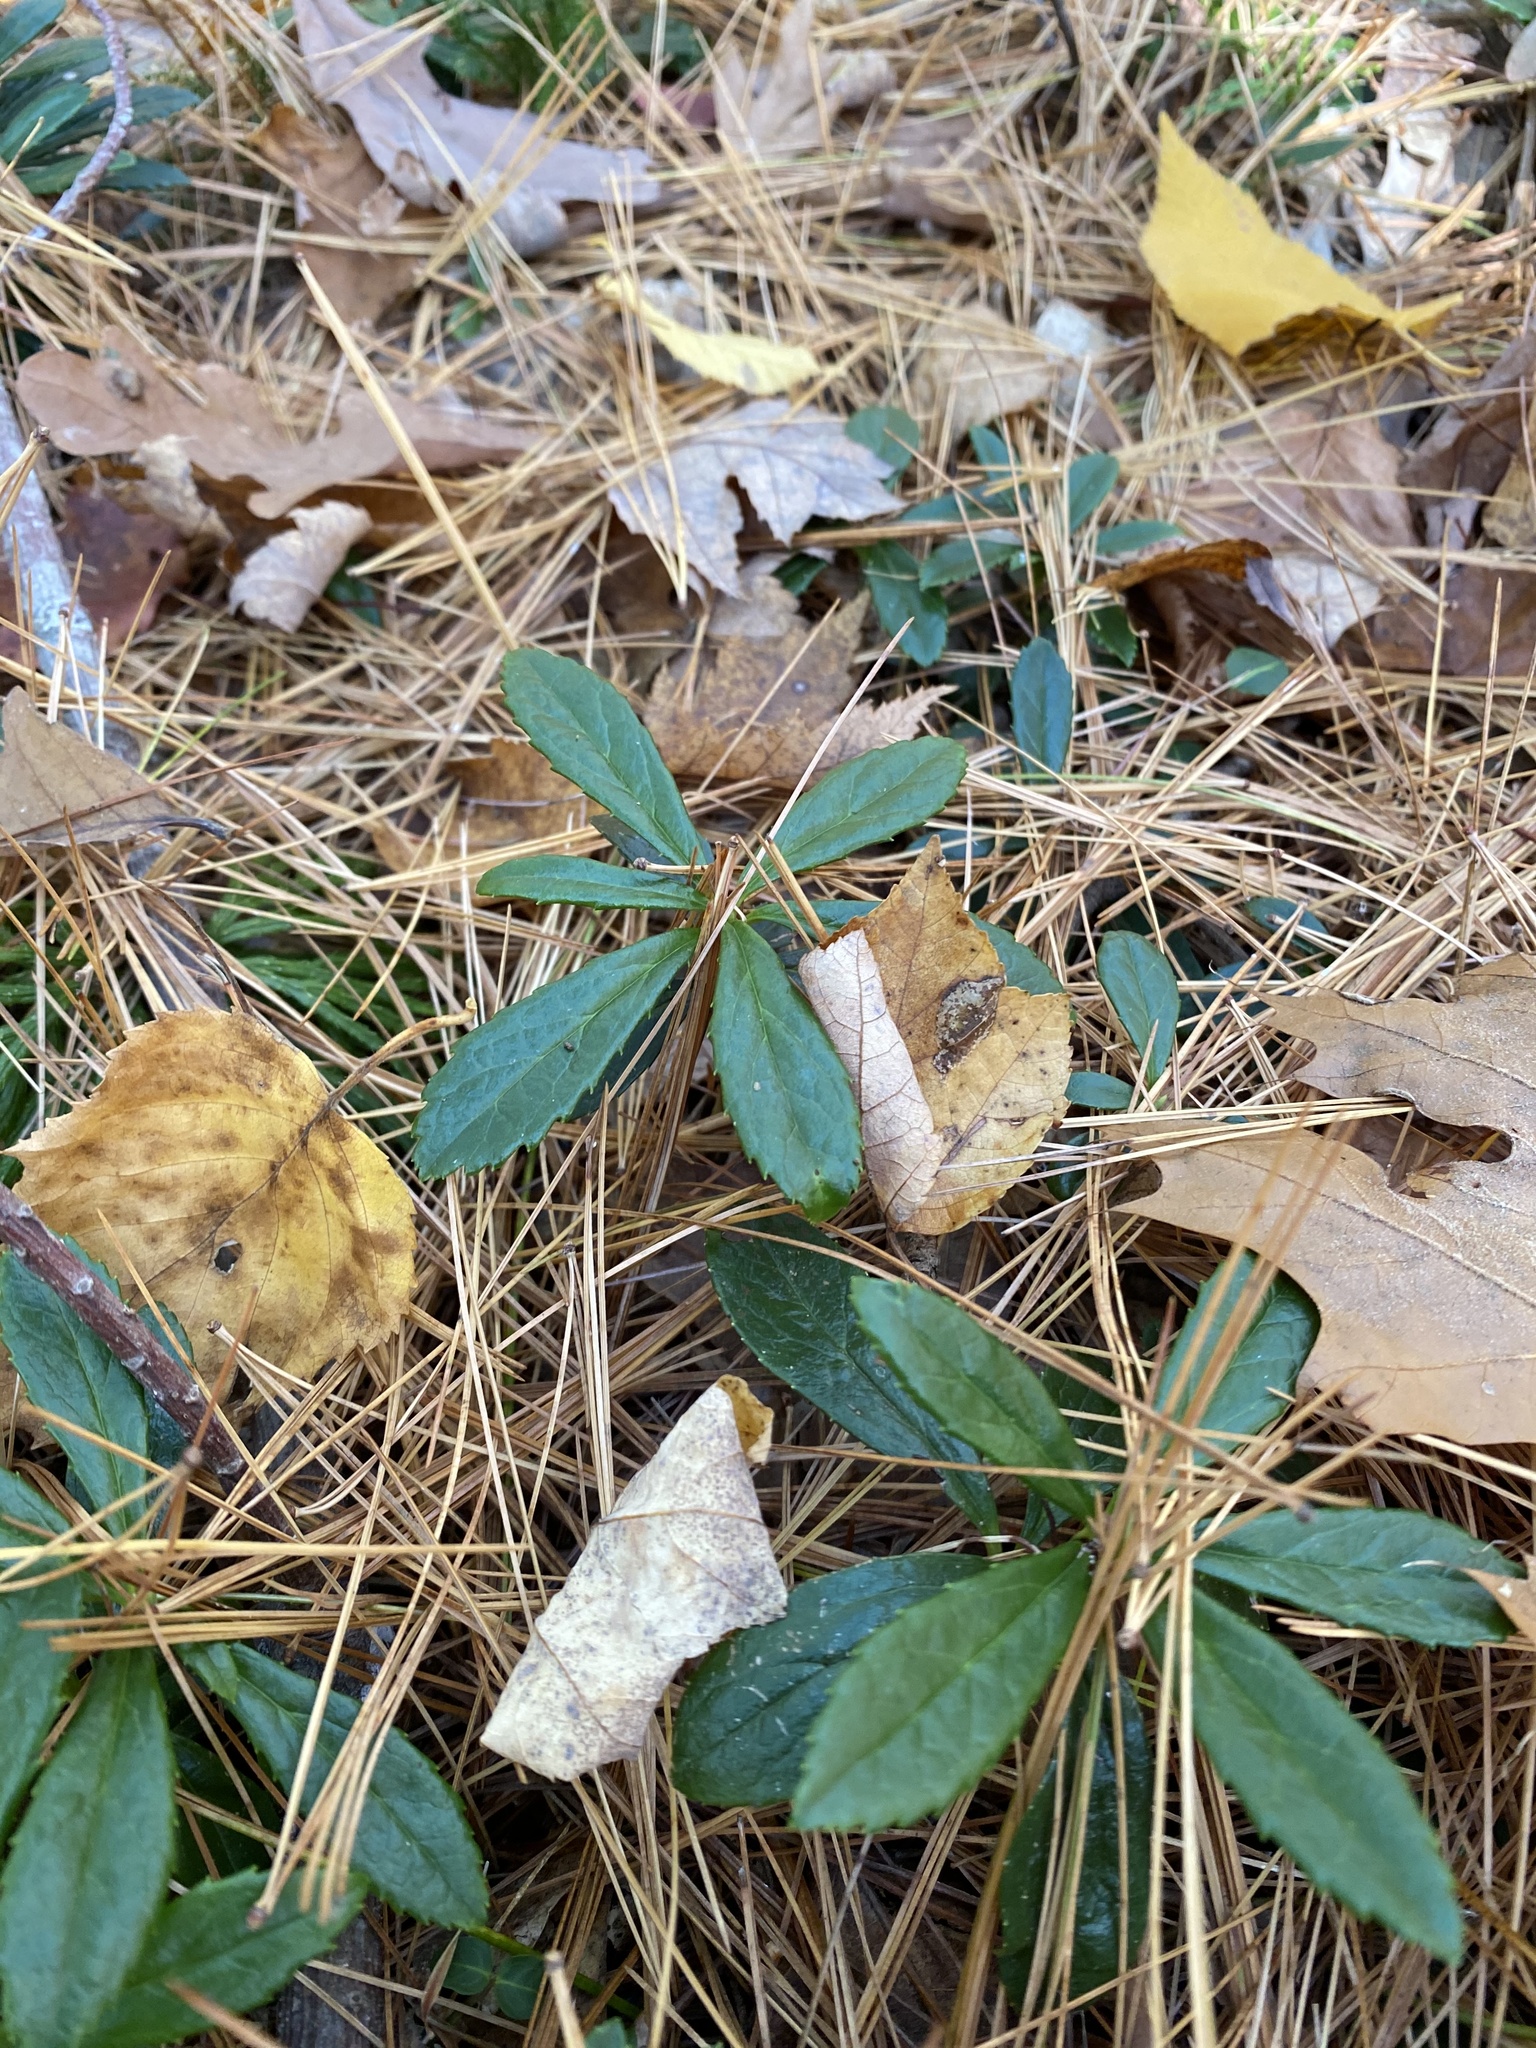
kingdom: Plantae
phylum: Tracheophyta
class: Magnoliopsida
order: Ericales
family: Ericaceae
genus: Chimaphila
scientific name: Chimaphila umbellata
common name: Pipsissewa
